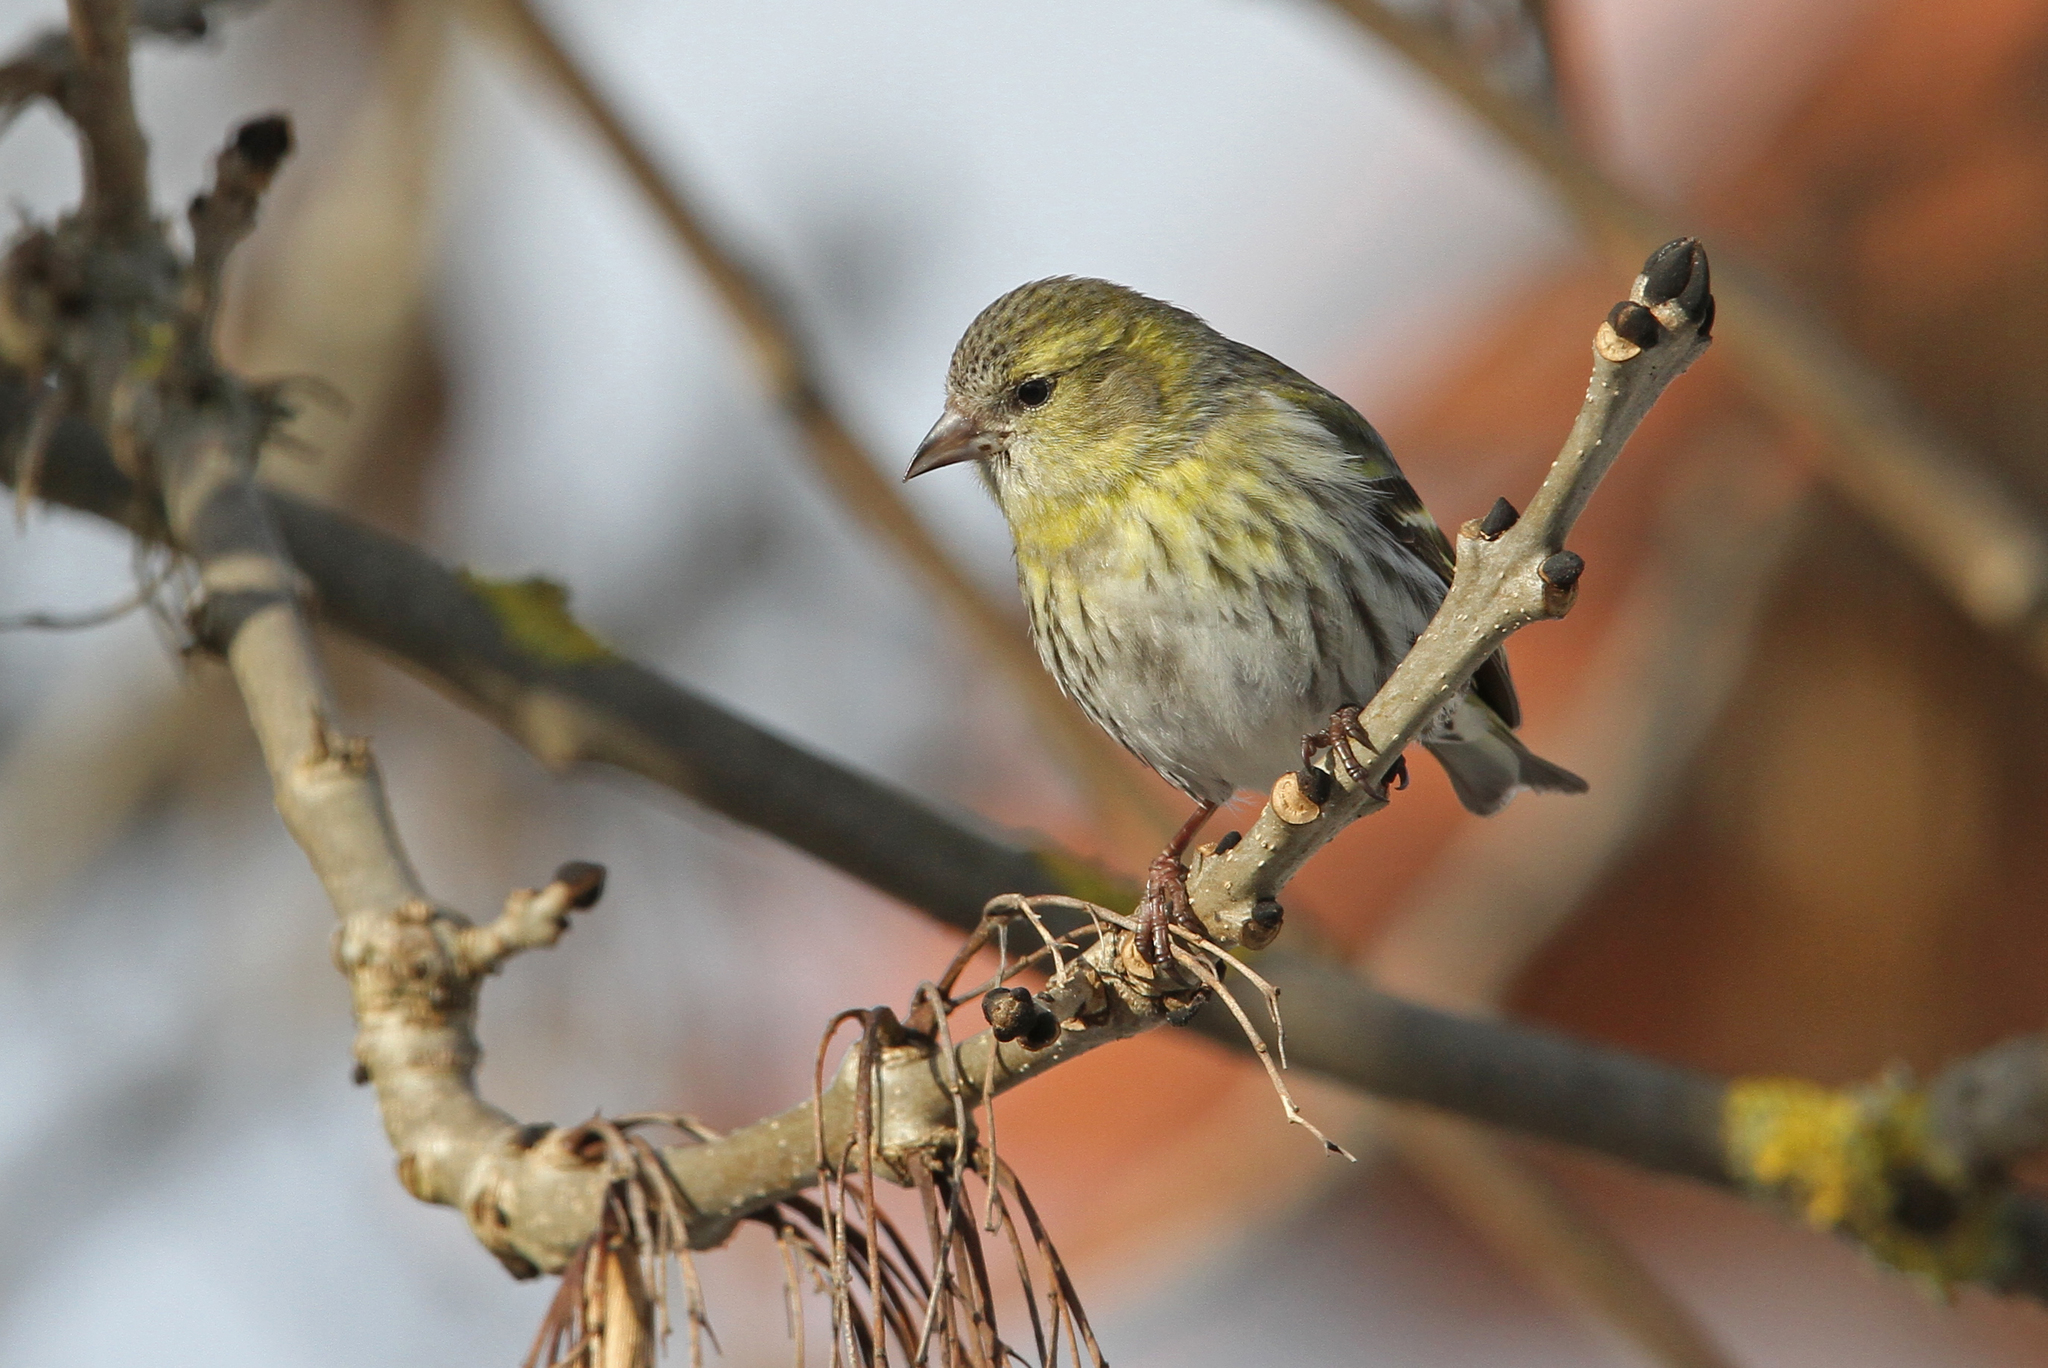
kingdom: Animalia
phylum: Chordata
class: Aves
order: Passeriformes
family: Fringillidae
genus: Spinus
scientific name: Spinus spinus
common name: Eurasian siskin
